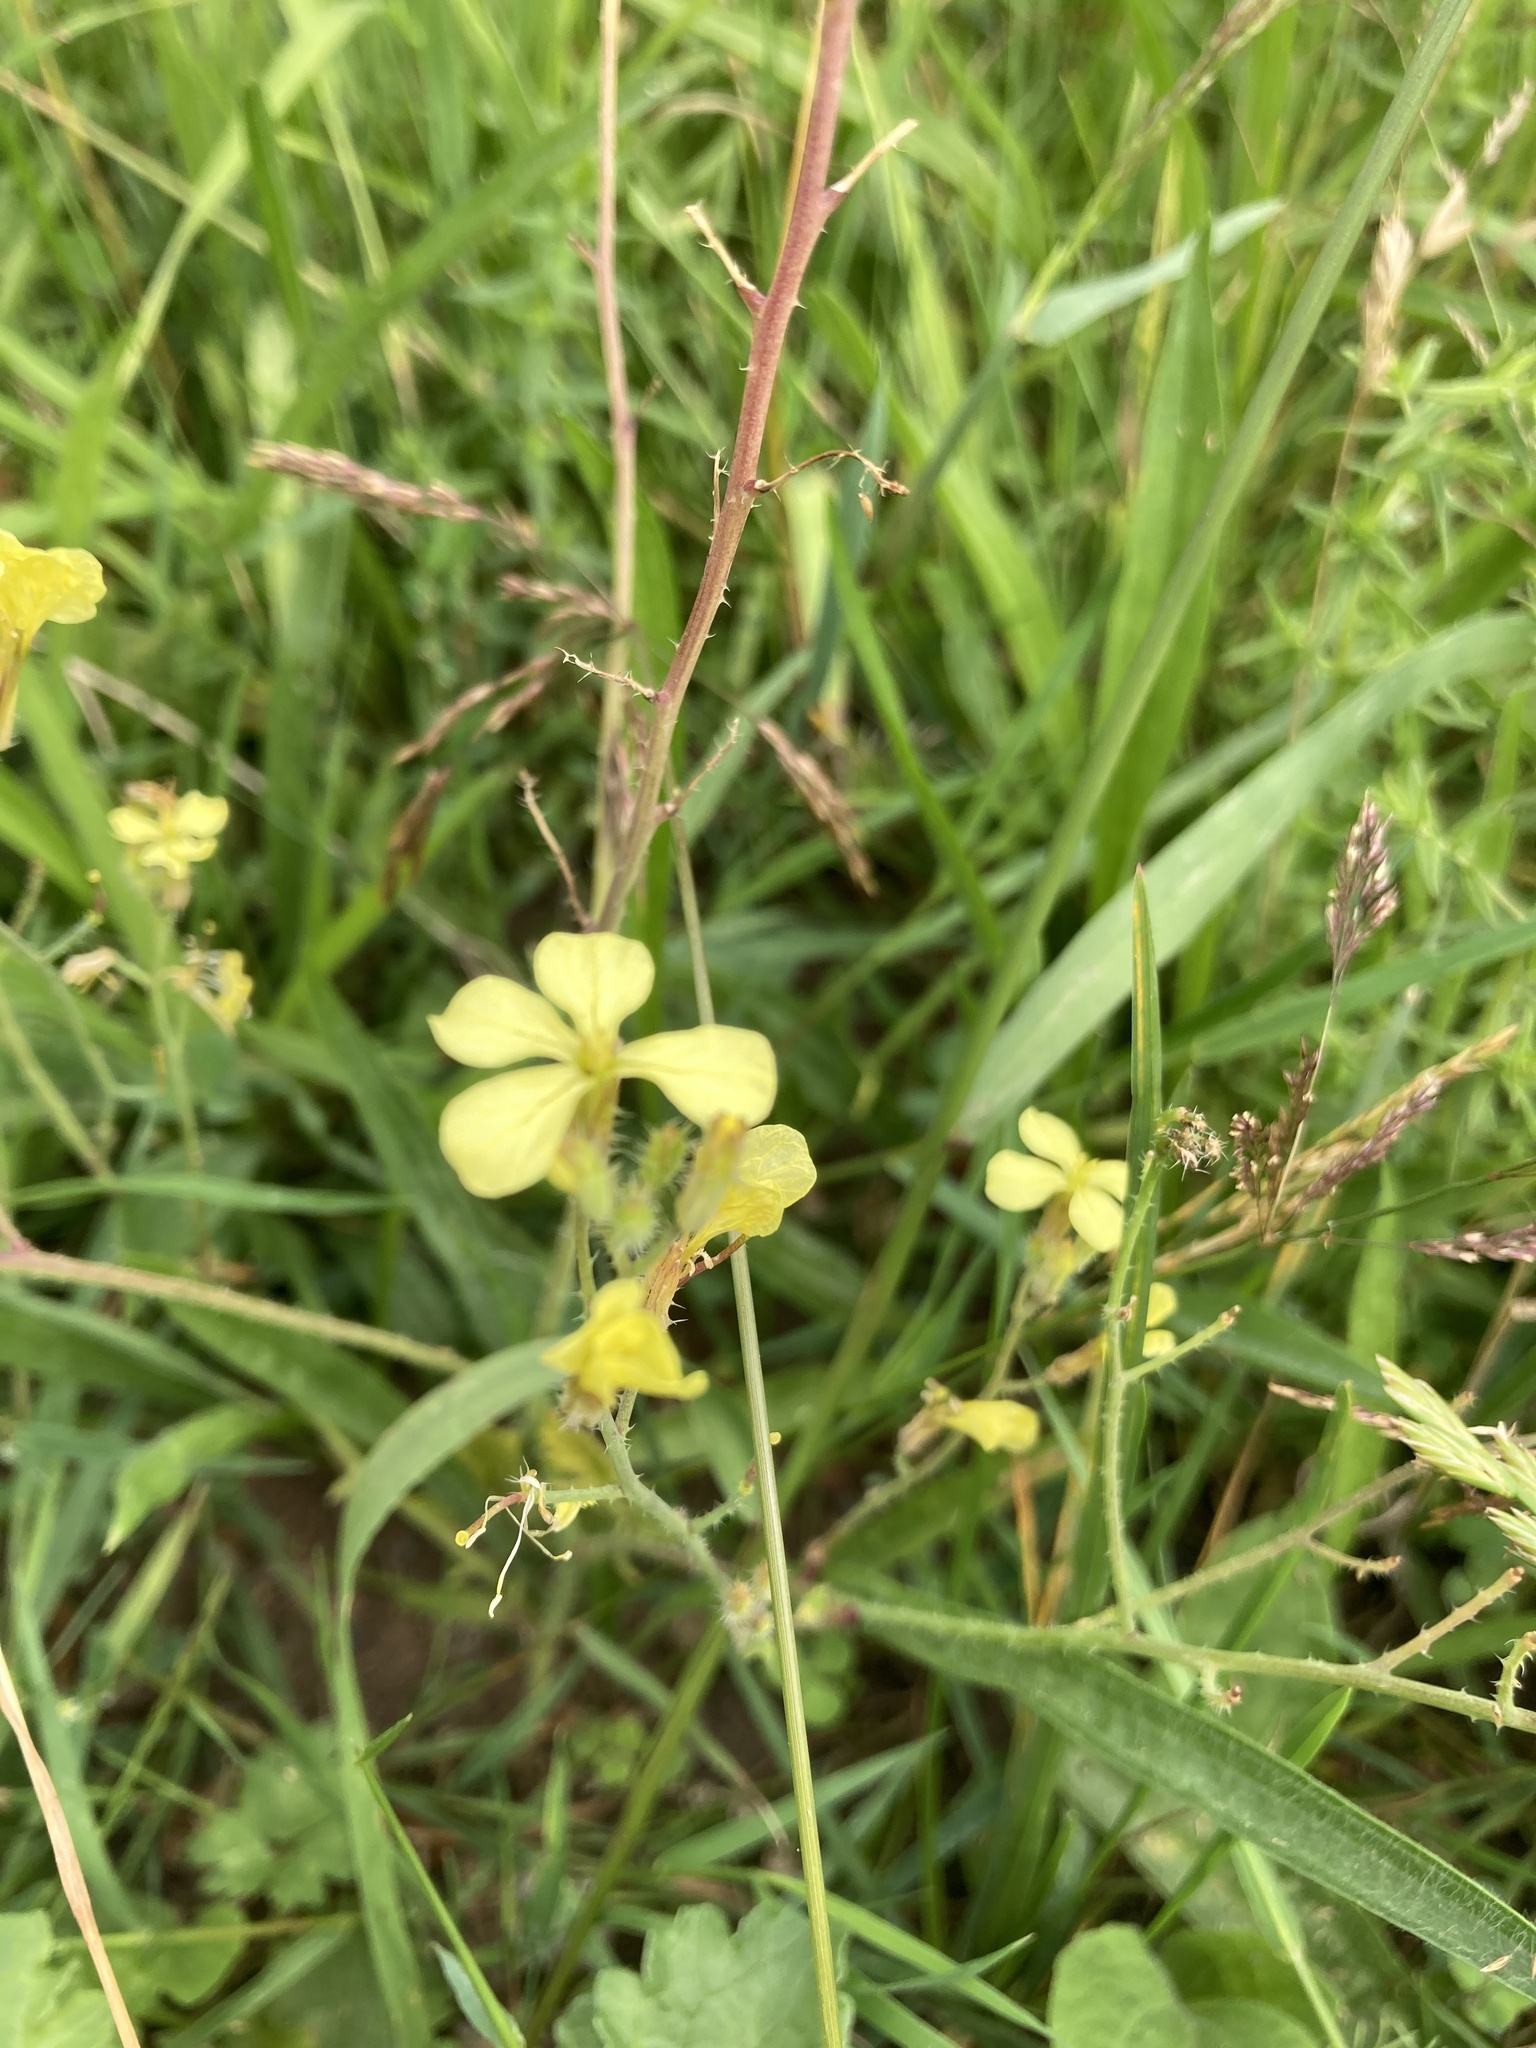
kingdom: Plantae
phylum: Tracheophyta
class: Magnoliopsida
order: Brassicales
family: Brassicaceae
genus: Raphanus
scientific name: Raphanus raphanistrum
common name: Wild radish
